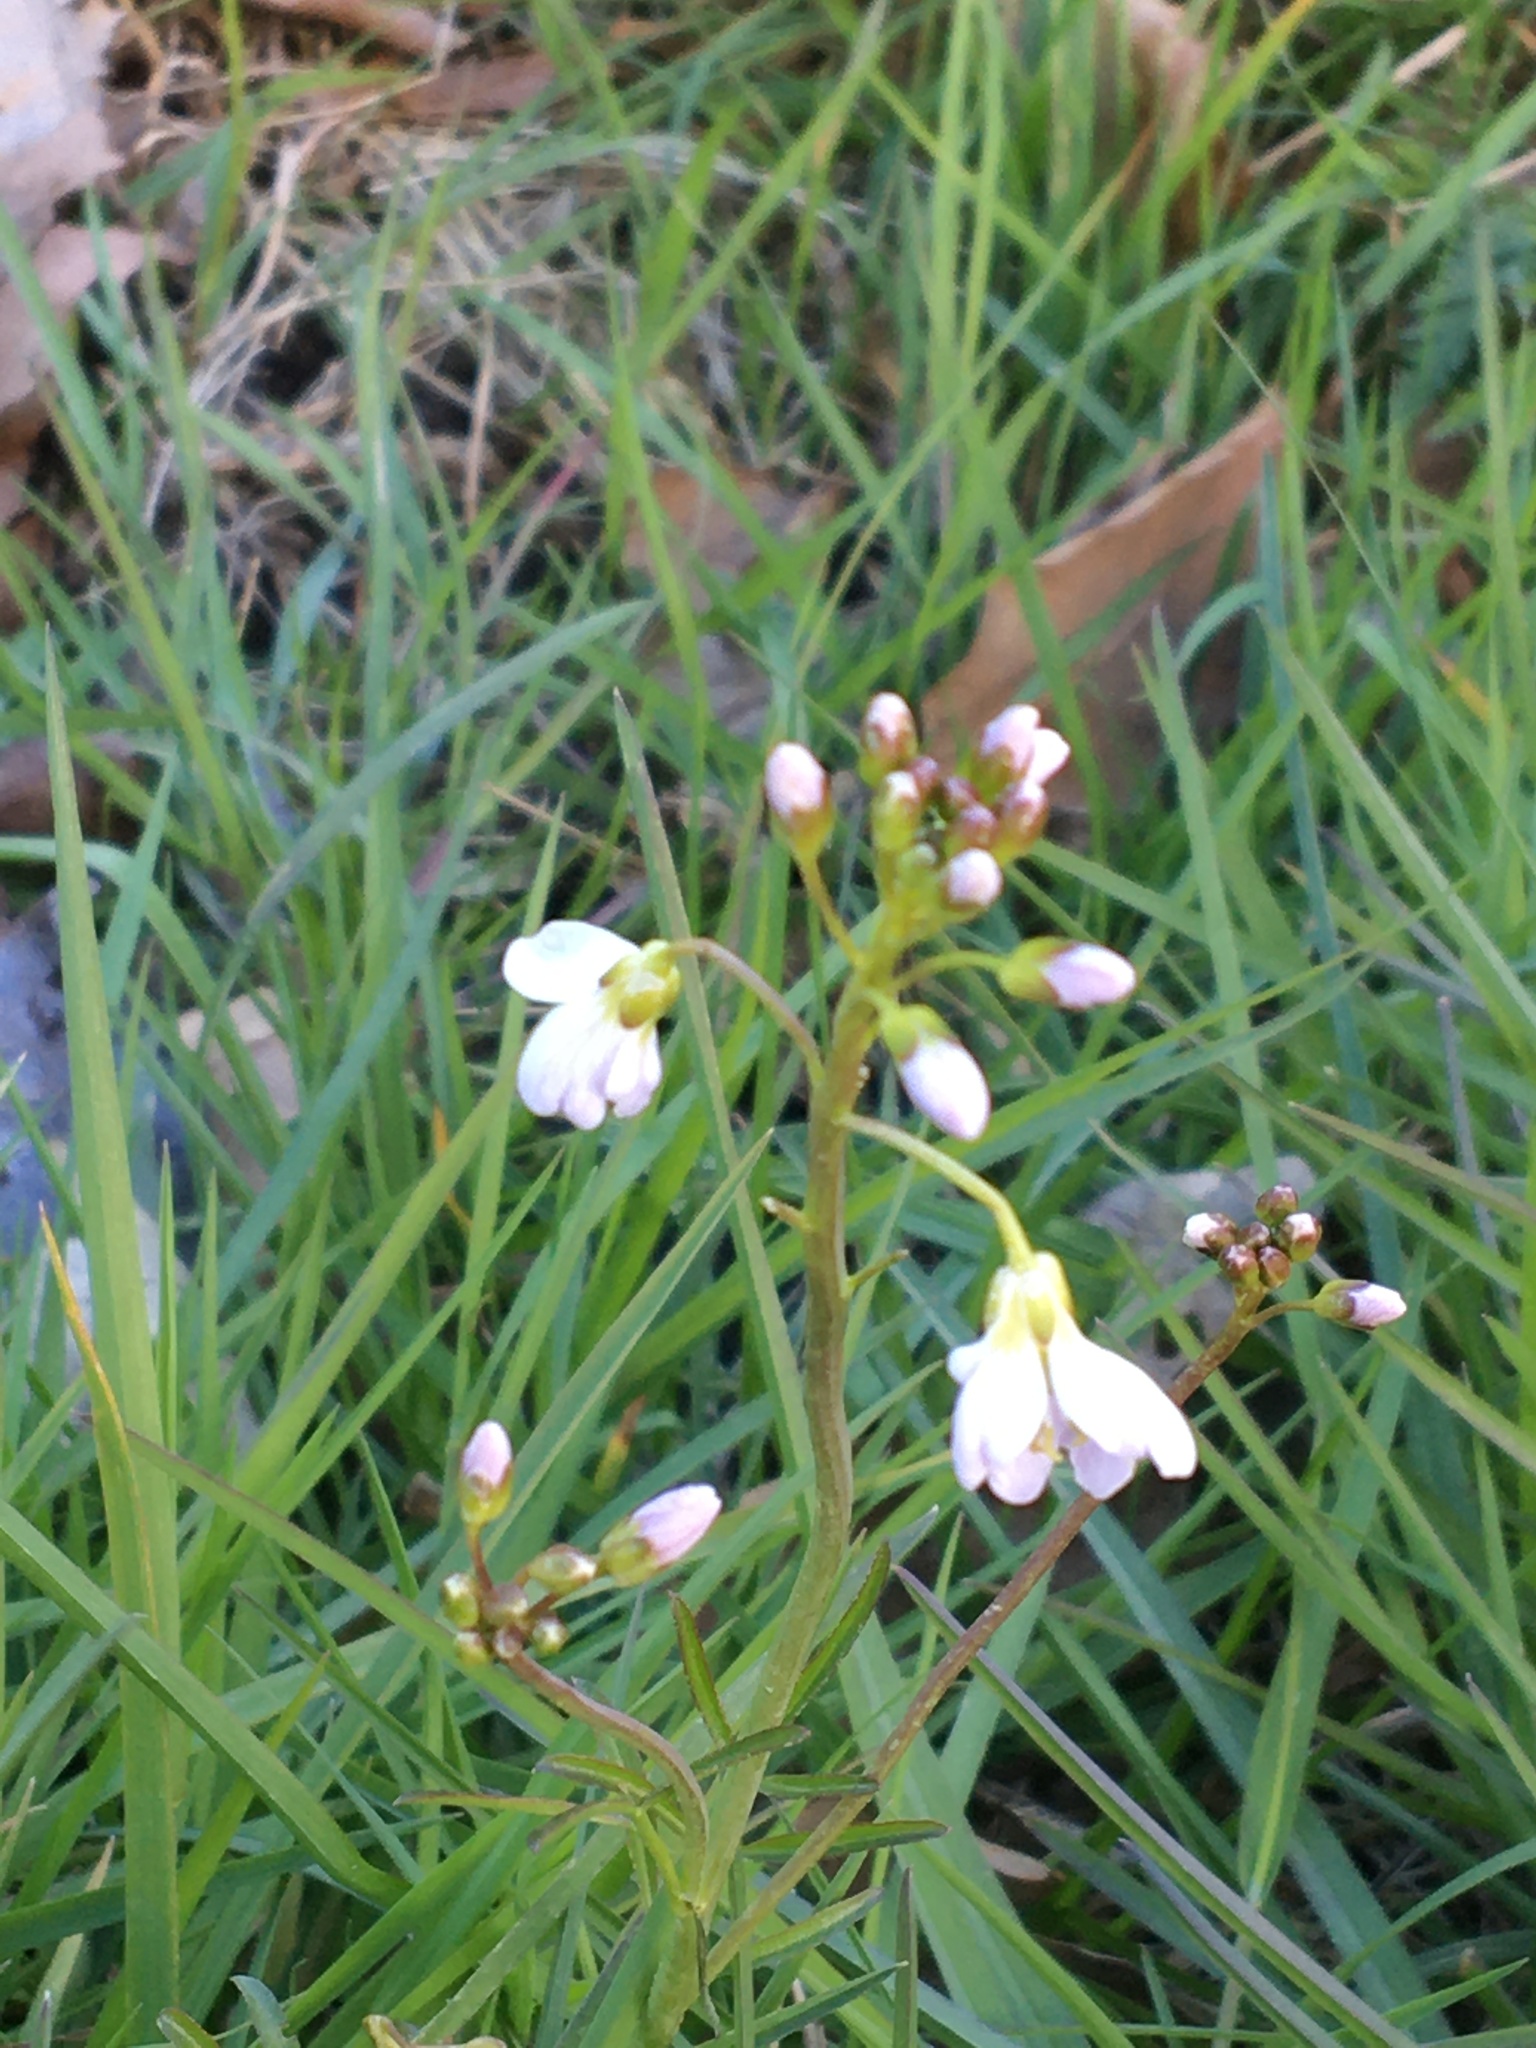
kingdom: Plantae
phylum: Tracheophyta
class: Magnoliopsida
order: Brassicales
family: Brassicaceae
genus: Cardamine
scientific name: Cardamine pratensis
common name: Cuckoo flower
